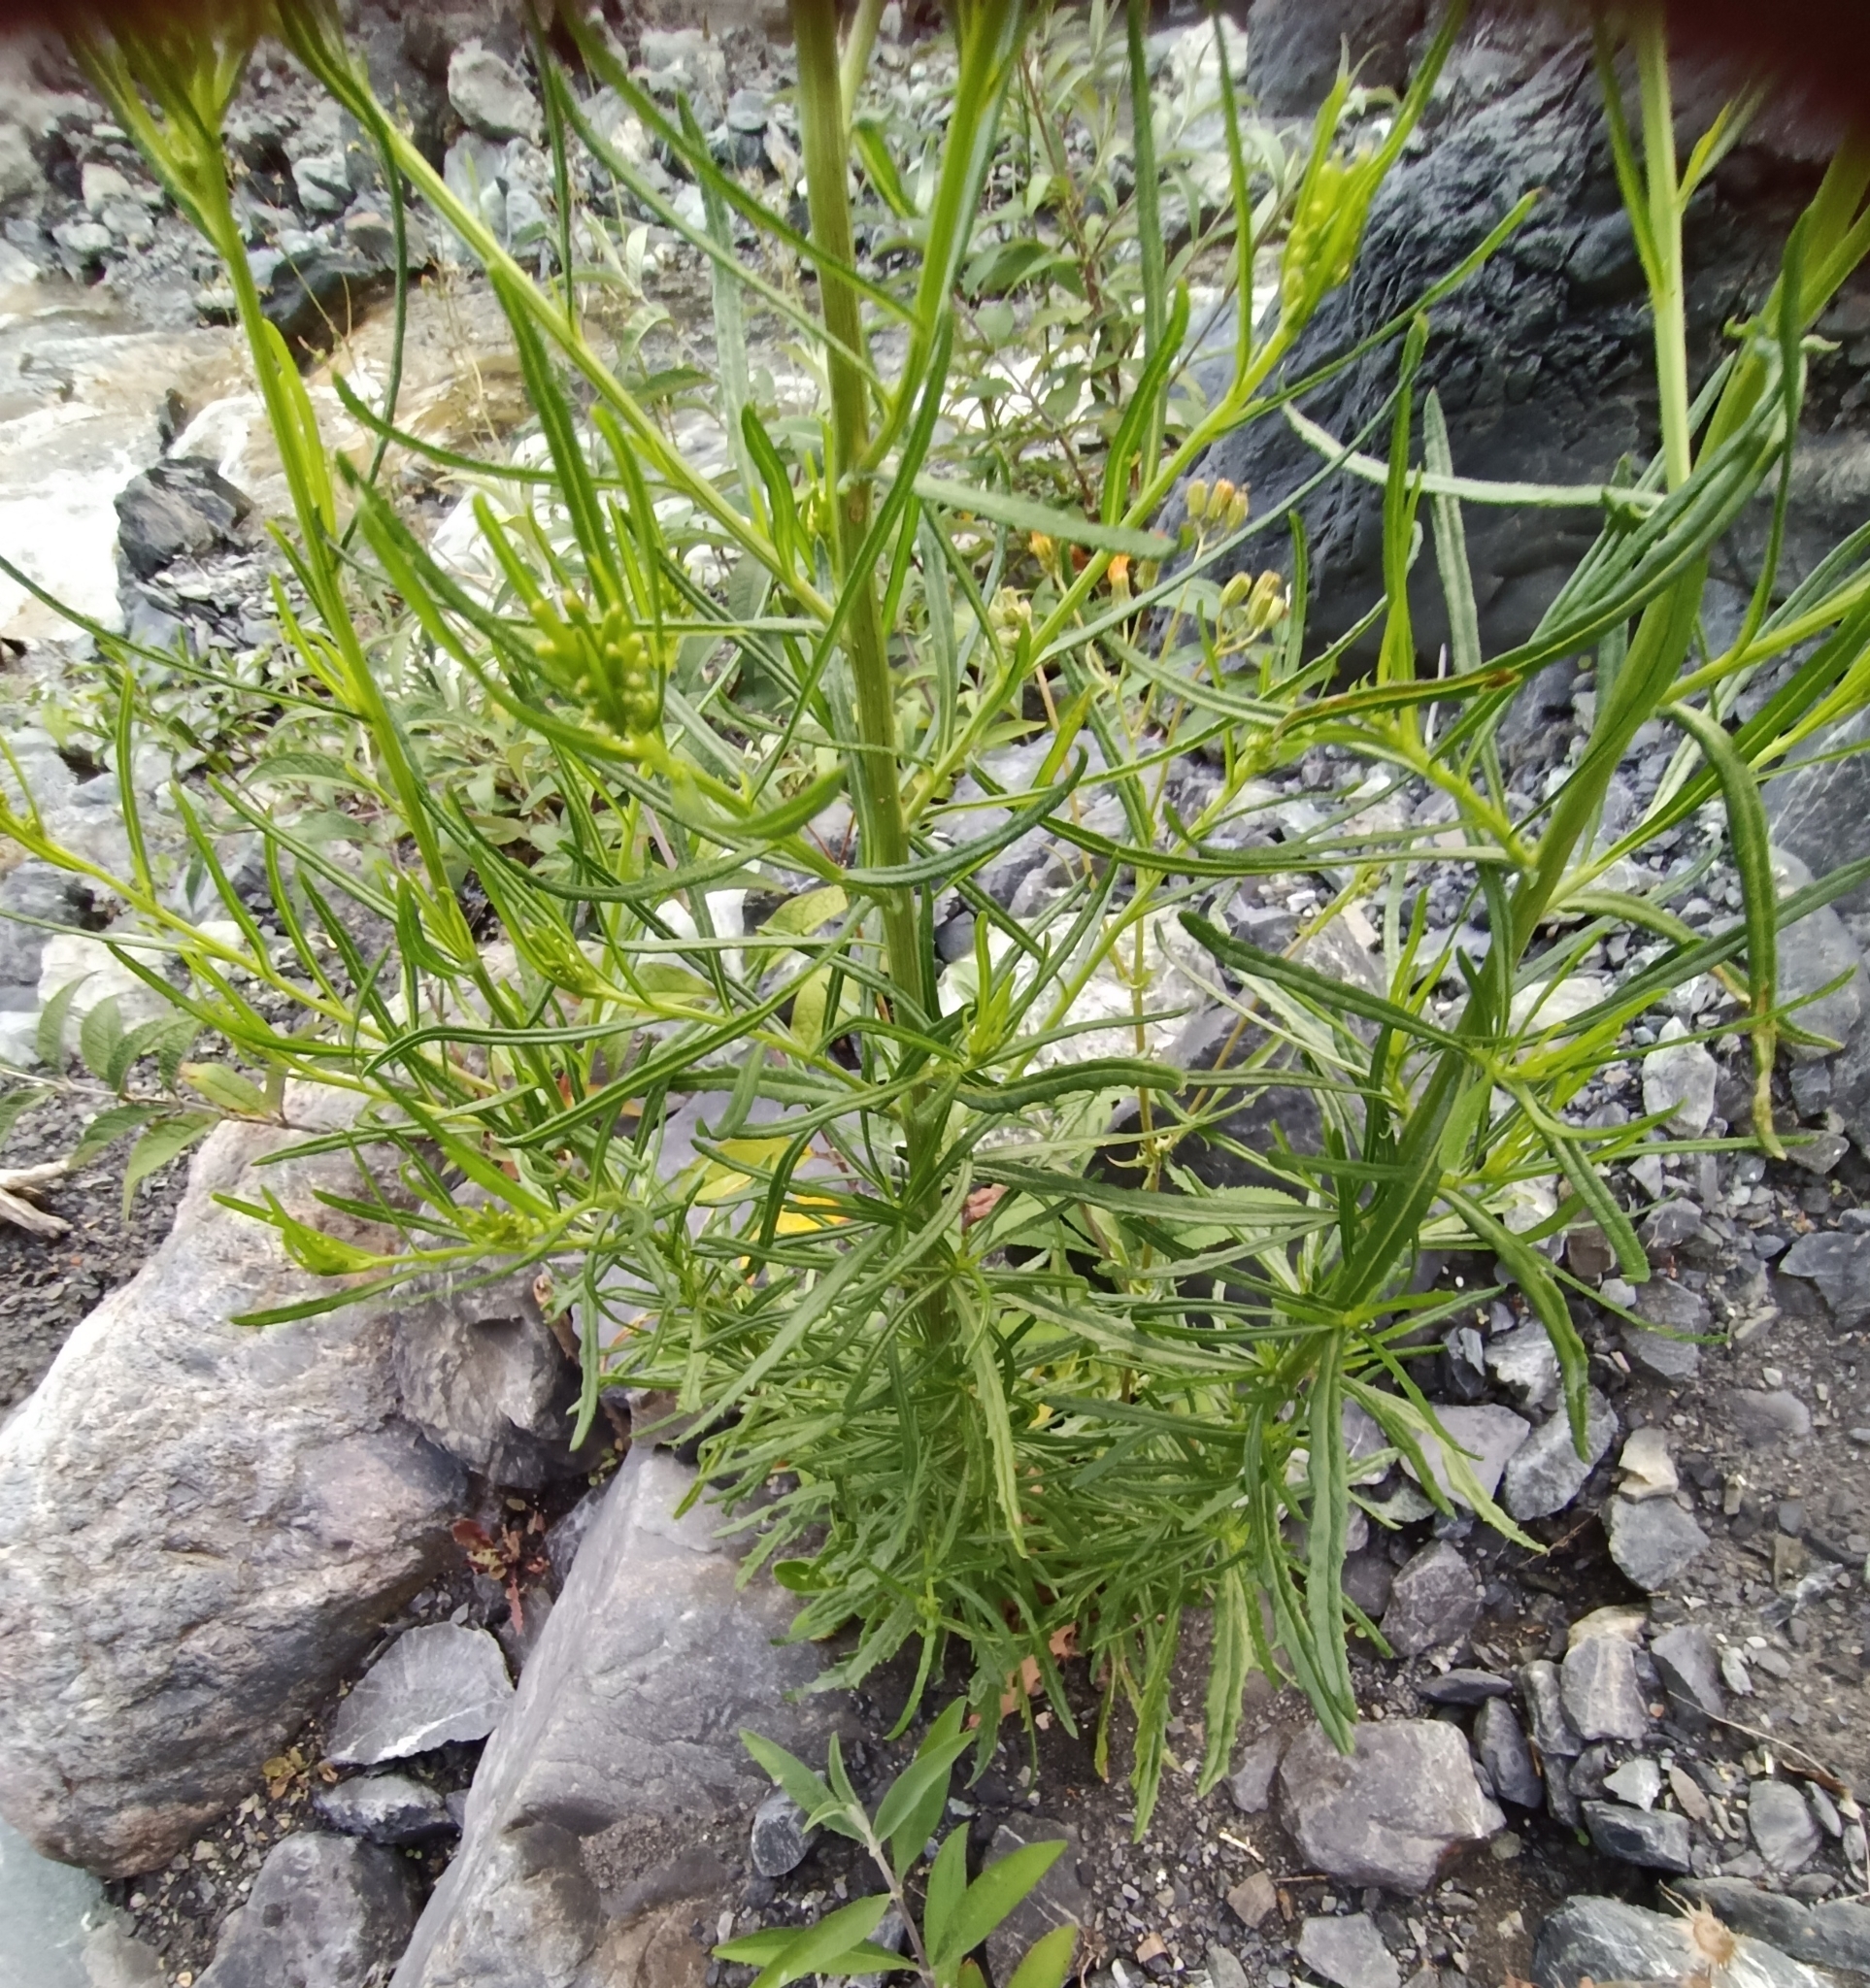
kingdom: Plantae
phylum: Tracheophyta
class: Magnoliopsida
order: Asterales
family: Asteraceae
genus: Senecio
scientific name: Senecio hispidulus
